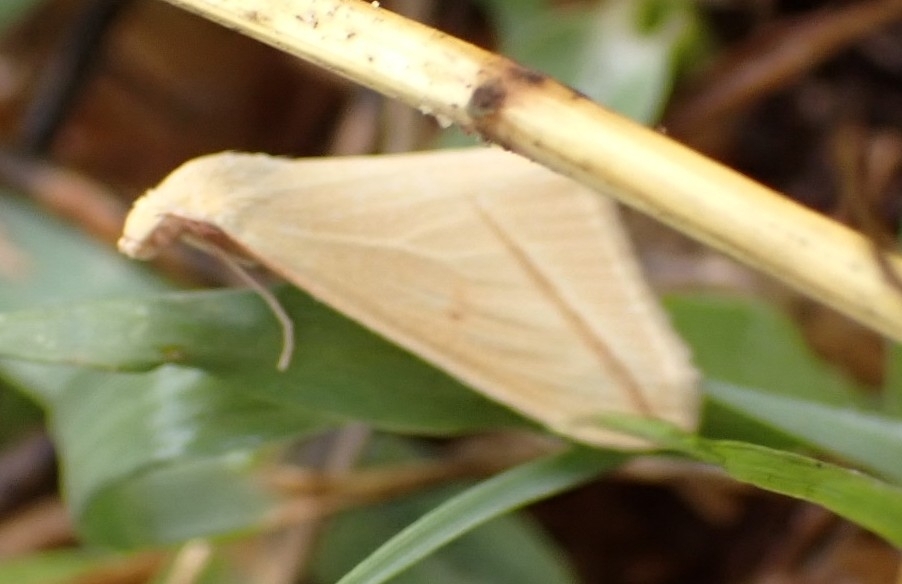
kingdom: Animalia
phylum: Arthropoda
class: Insecta
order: Lepidoptera
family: Geometridae
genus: Rhodometra
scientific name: Rhodometra sacraria
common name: Vestal
